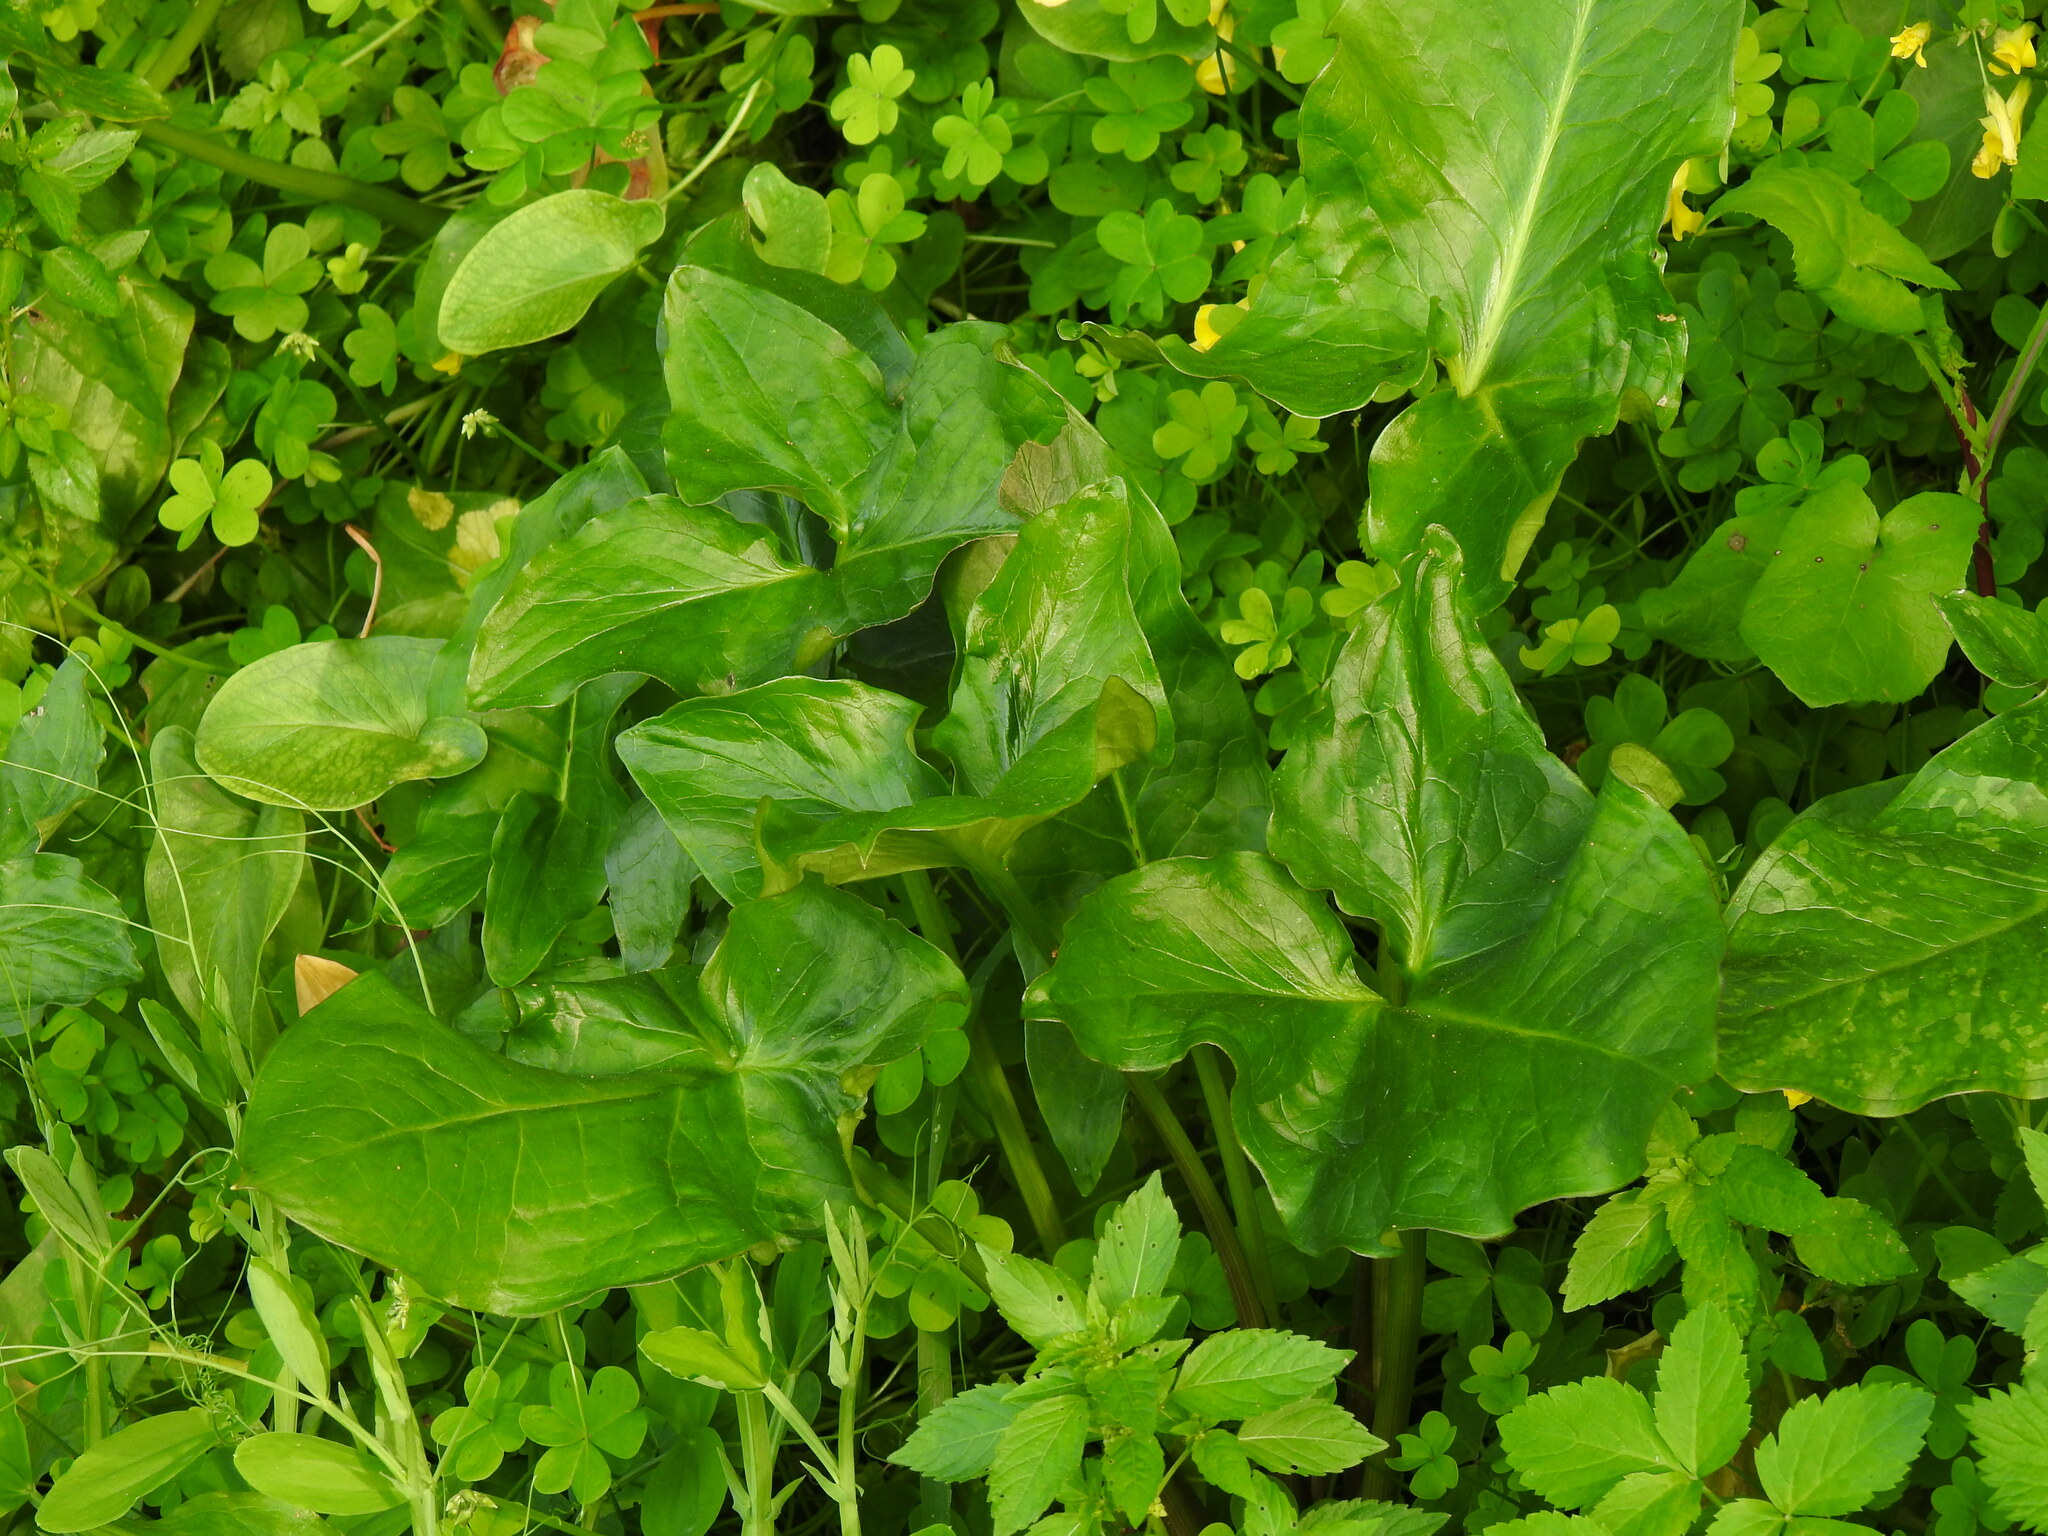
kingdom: Plantae
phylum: Tracheophyta
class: Liliopsida
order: Alismatales
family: Araceae
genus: Arum
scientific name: Arum italicum
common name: Italian lords-and-ladies
